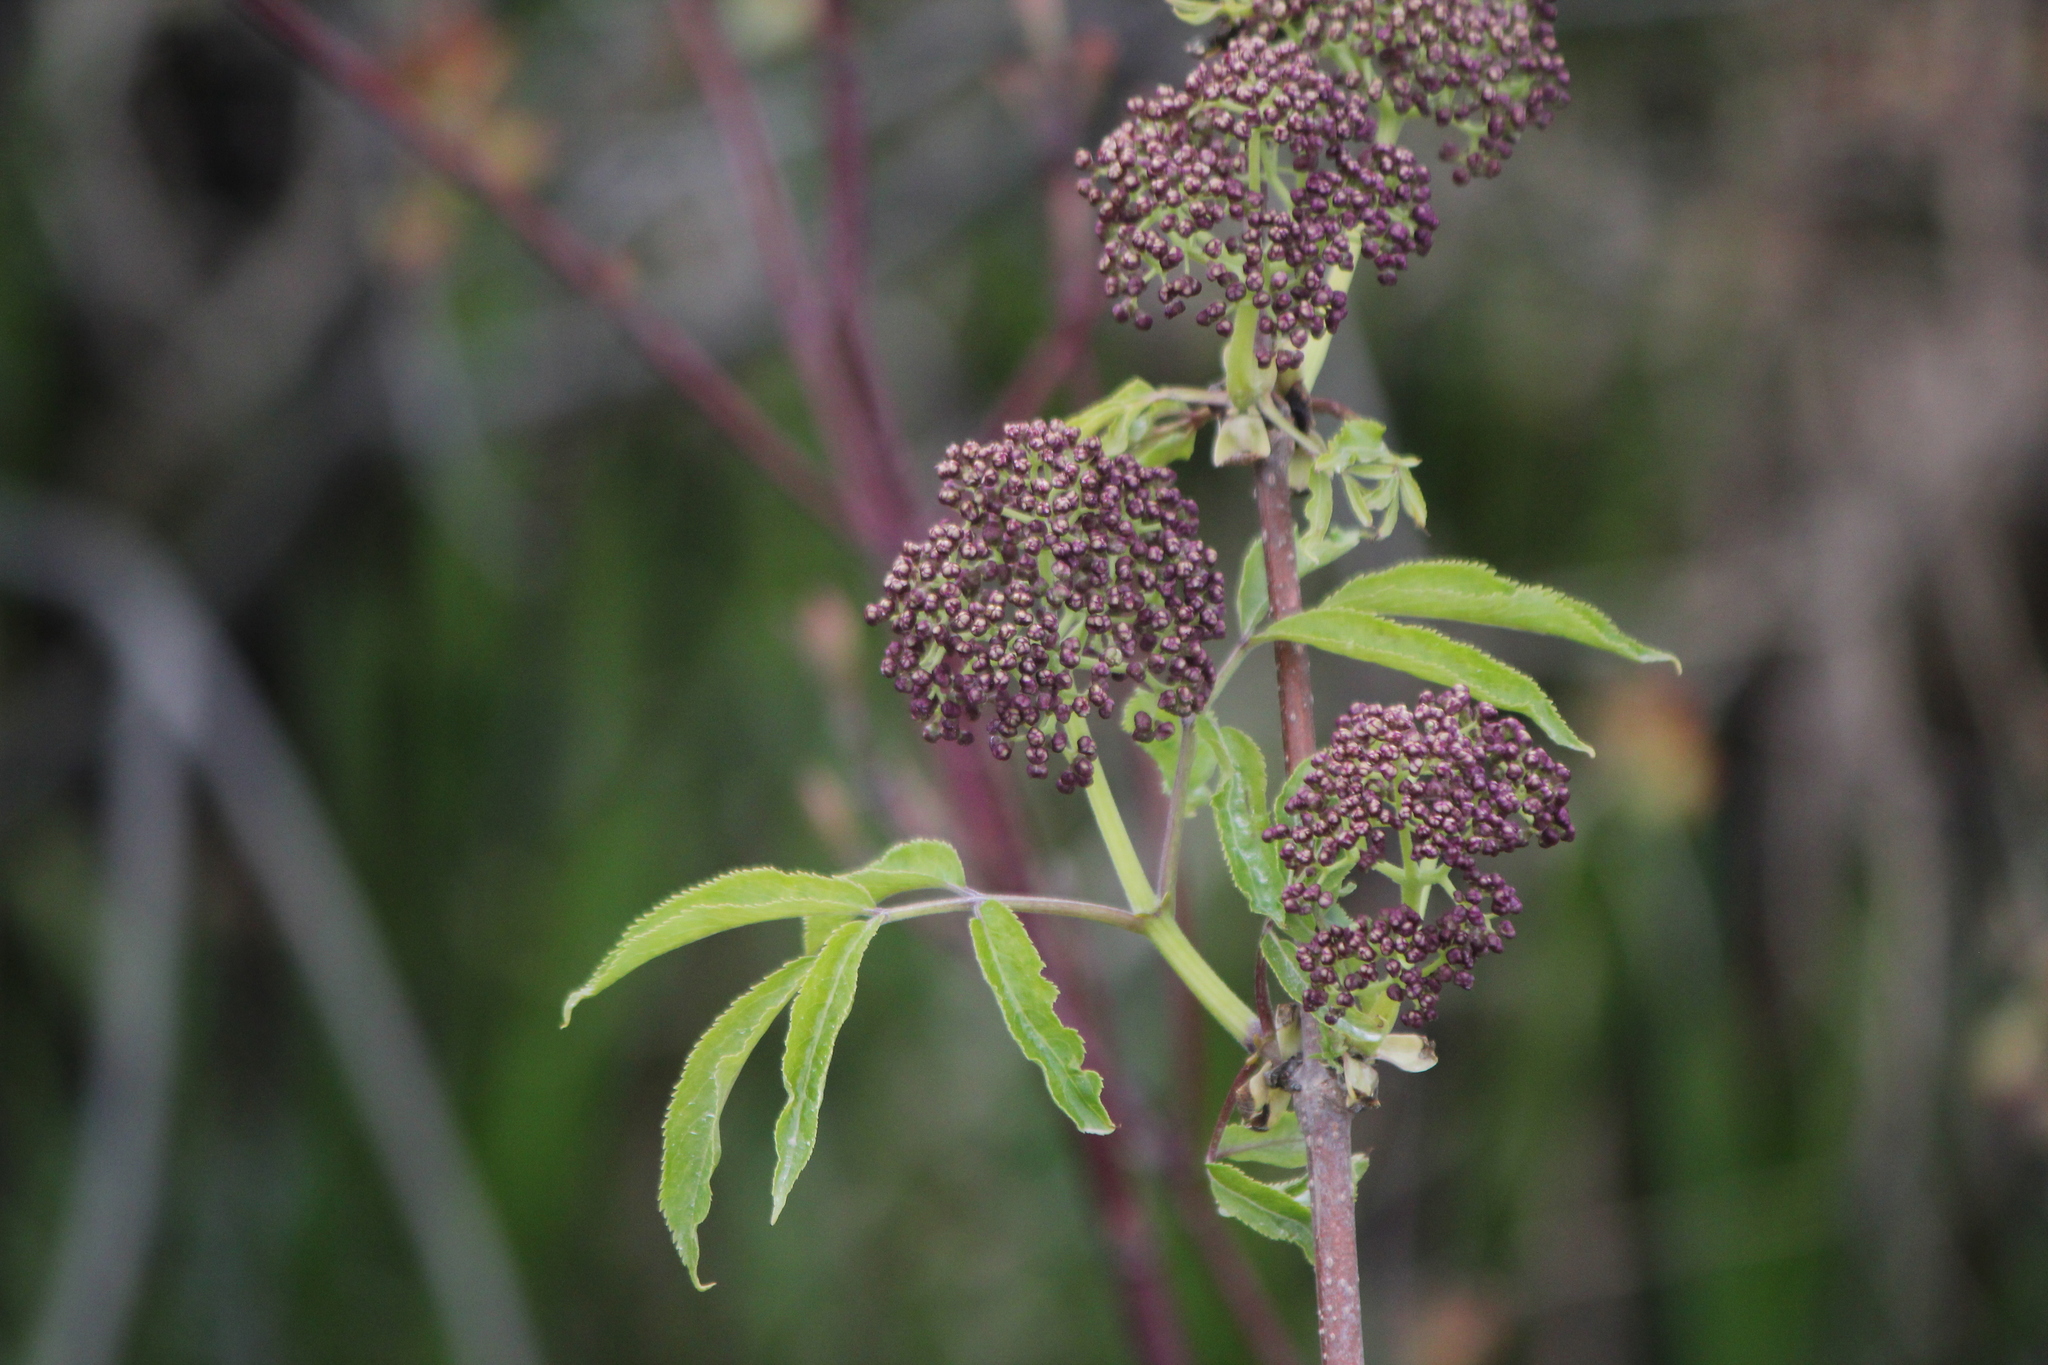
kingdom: Plantae
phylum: Tracheophyta
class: Magnoliopsida
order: Dipsacales
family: Viburnaceae
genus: Sambucus
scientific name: Sambucus racemosa
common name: Red-berried elder
